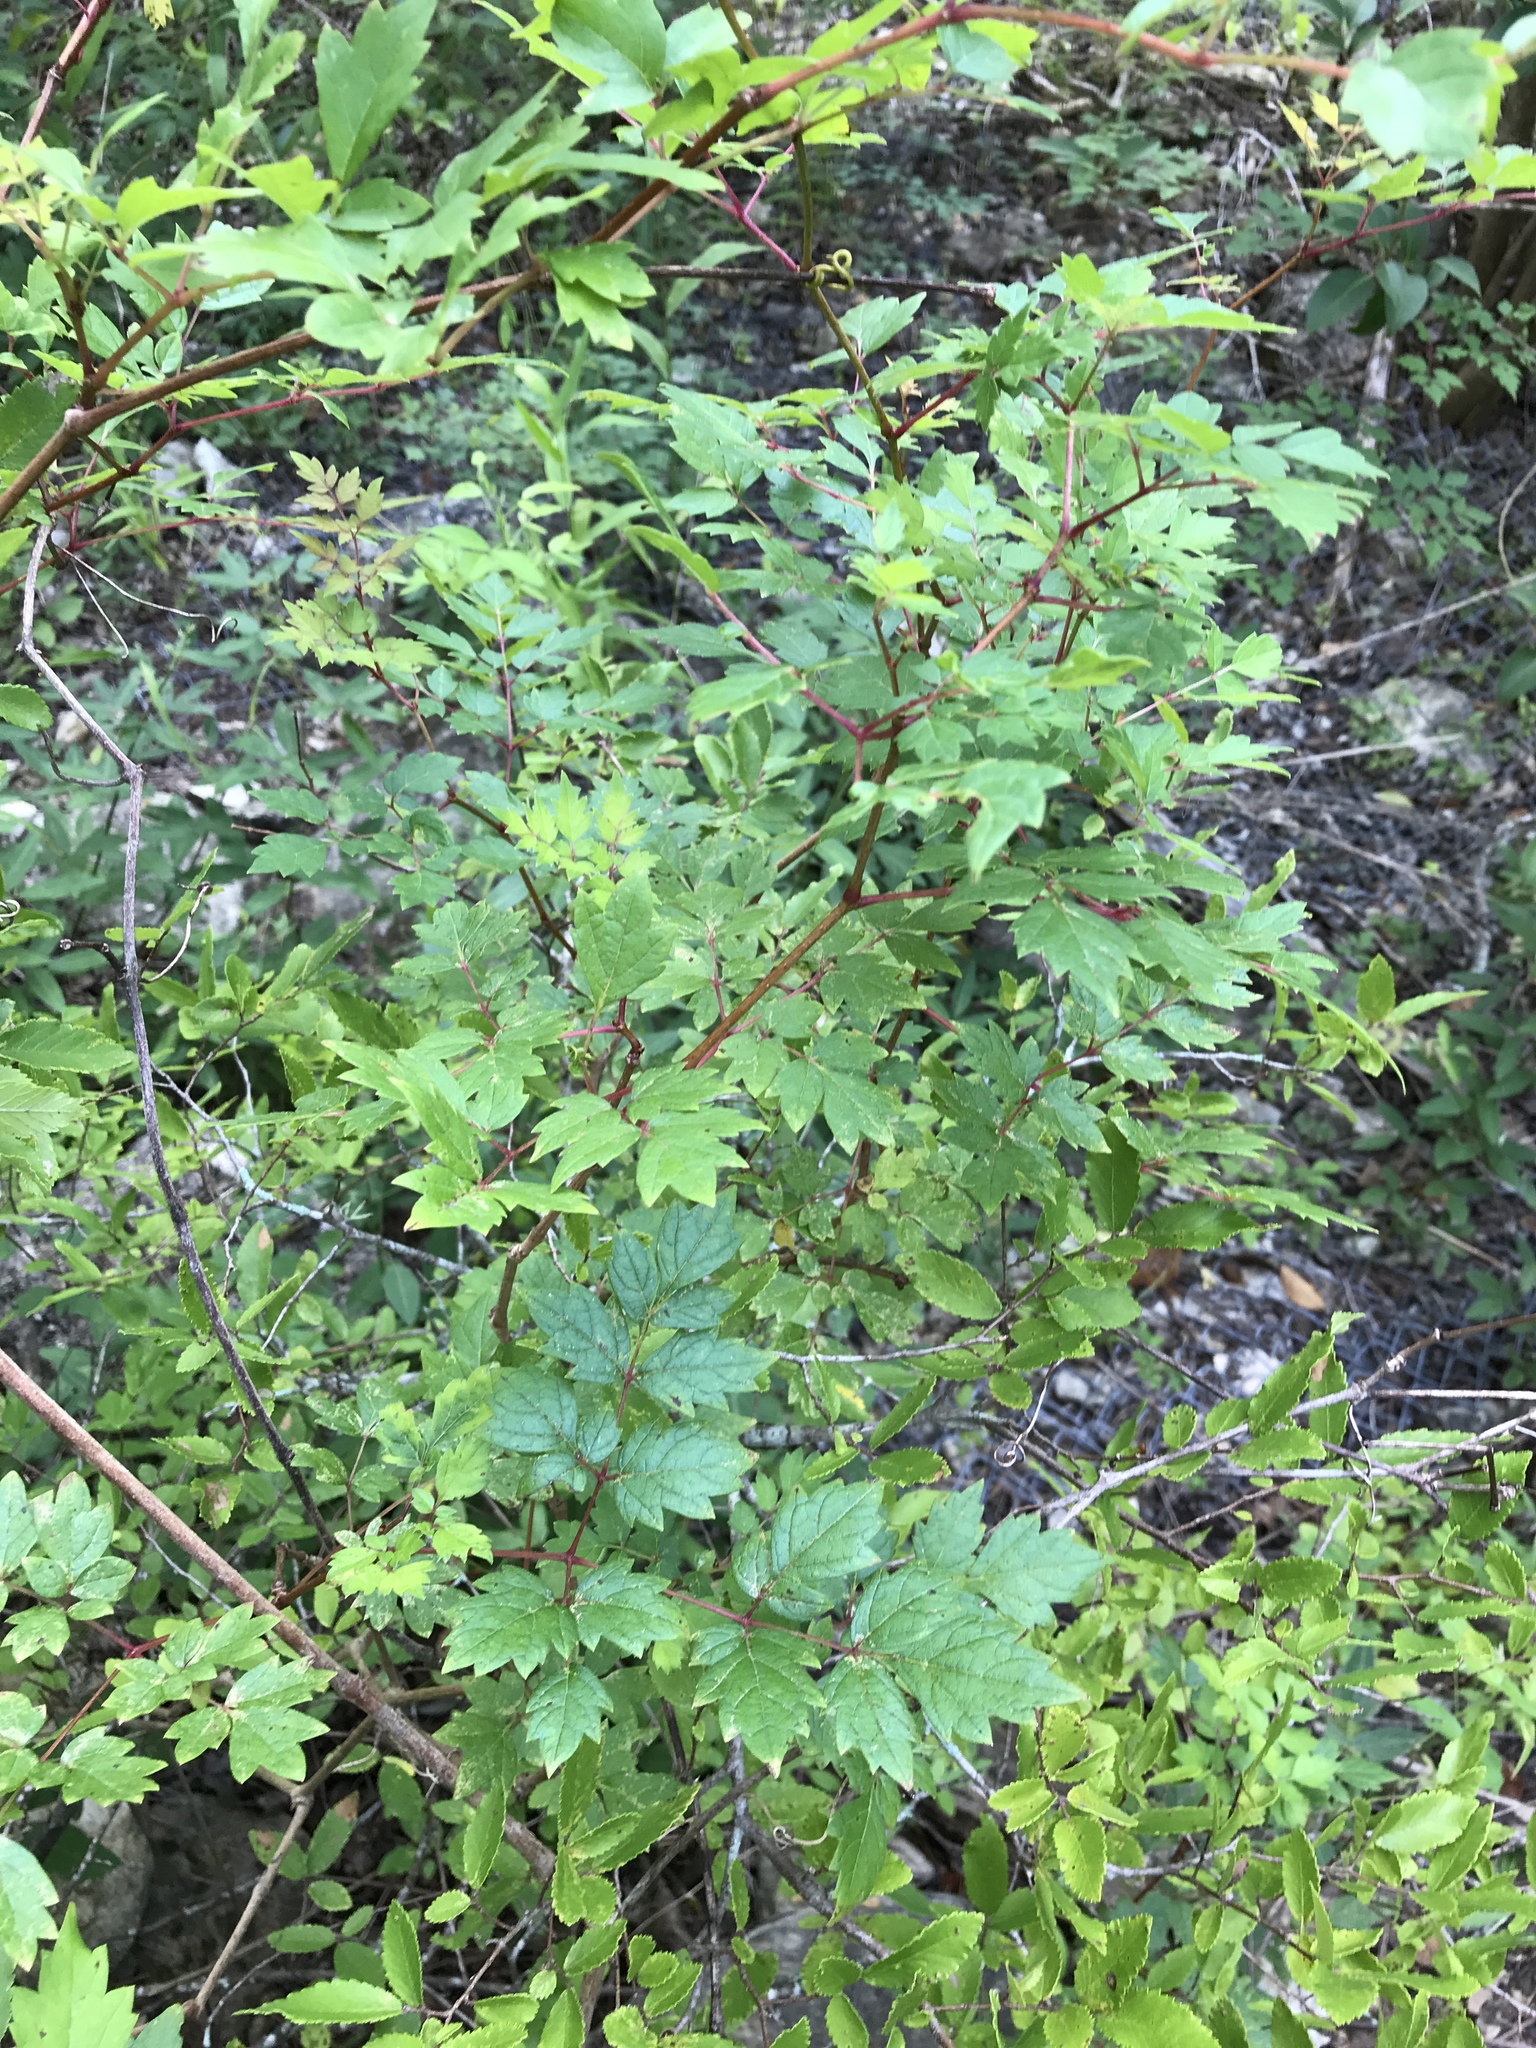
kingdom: Plantae
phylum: Tracheophyta
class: Magnoliopsida
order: Vitales
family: Vitaceae
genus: Nekemias
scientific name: Nekemias arborea
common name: Peppervine
